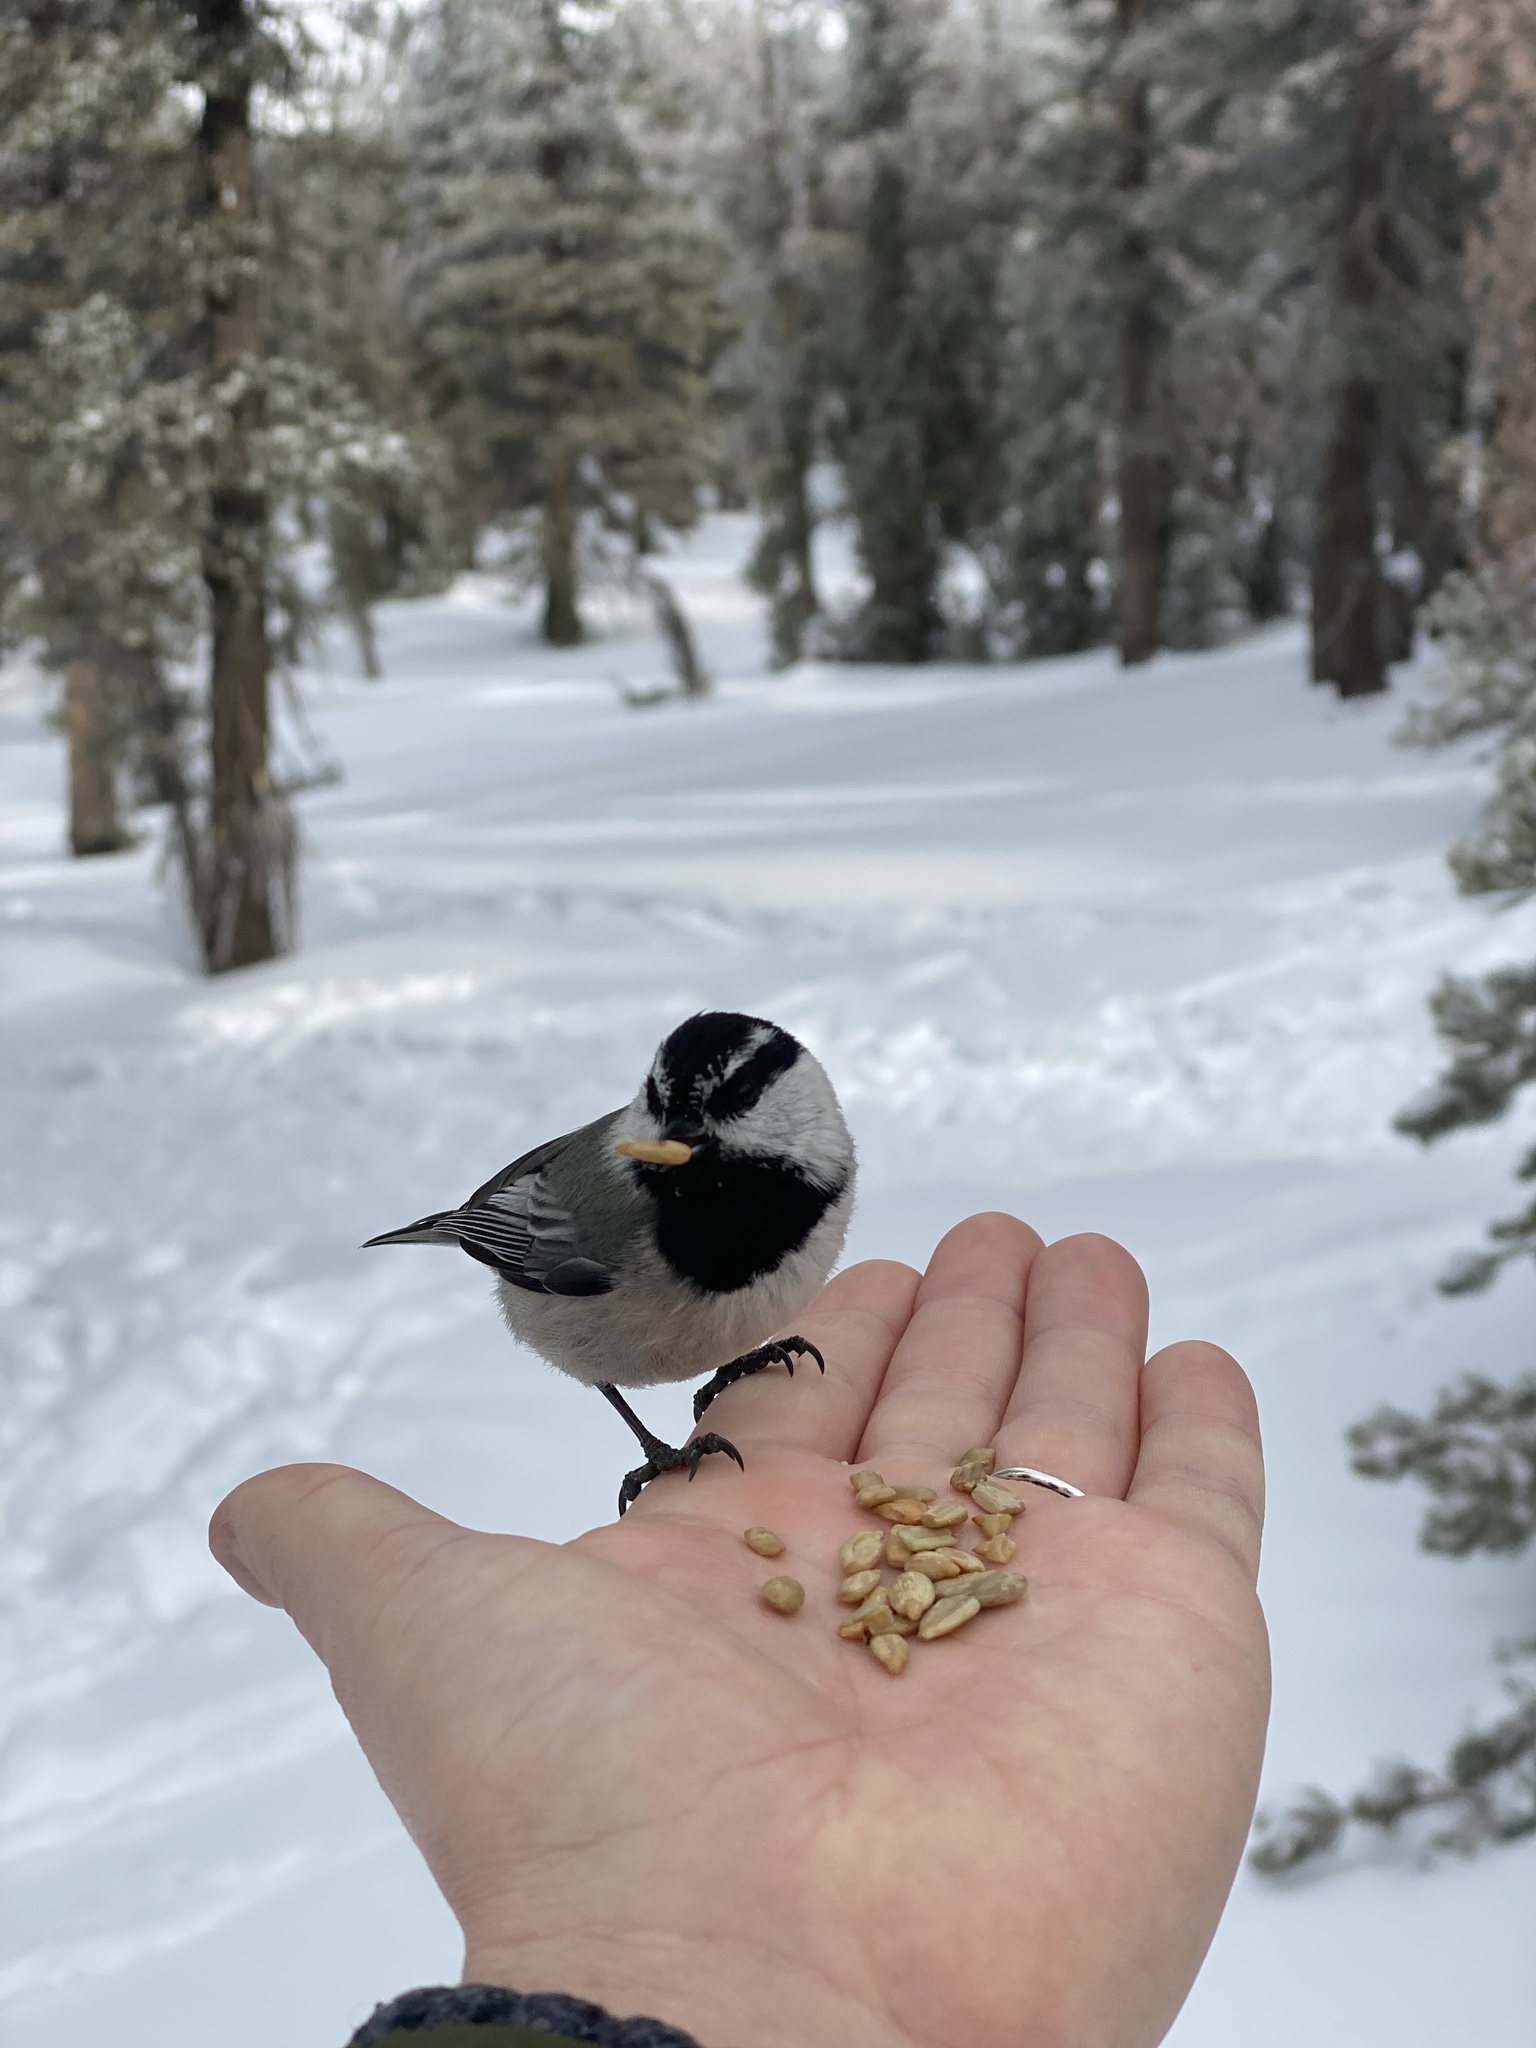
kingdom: Animalia
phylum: Chordata
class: Aves
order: Passeriformes
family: Paridae
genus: Poecile
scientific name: Poecile gambeli
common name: Mountain chickadee
